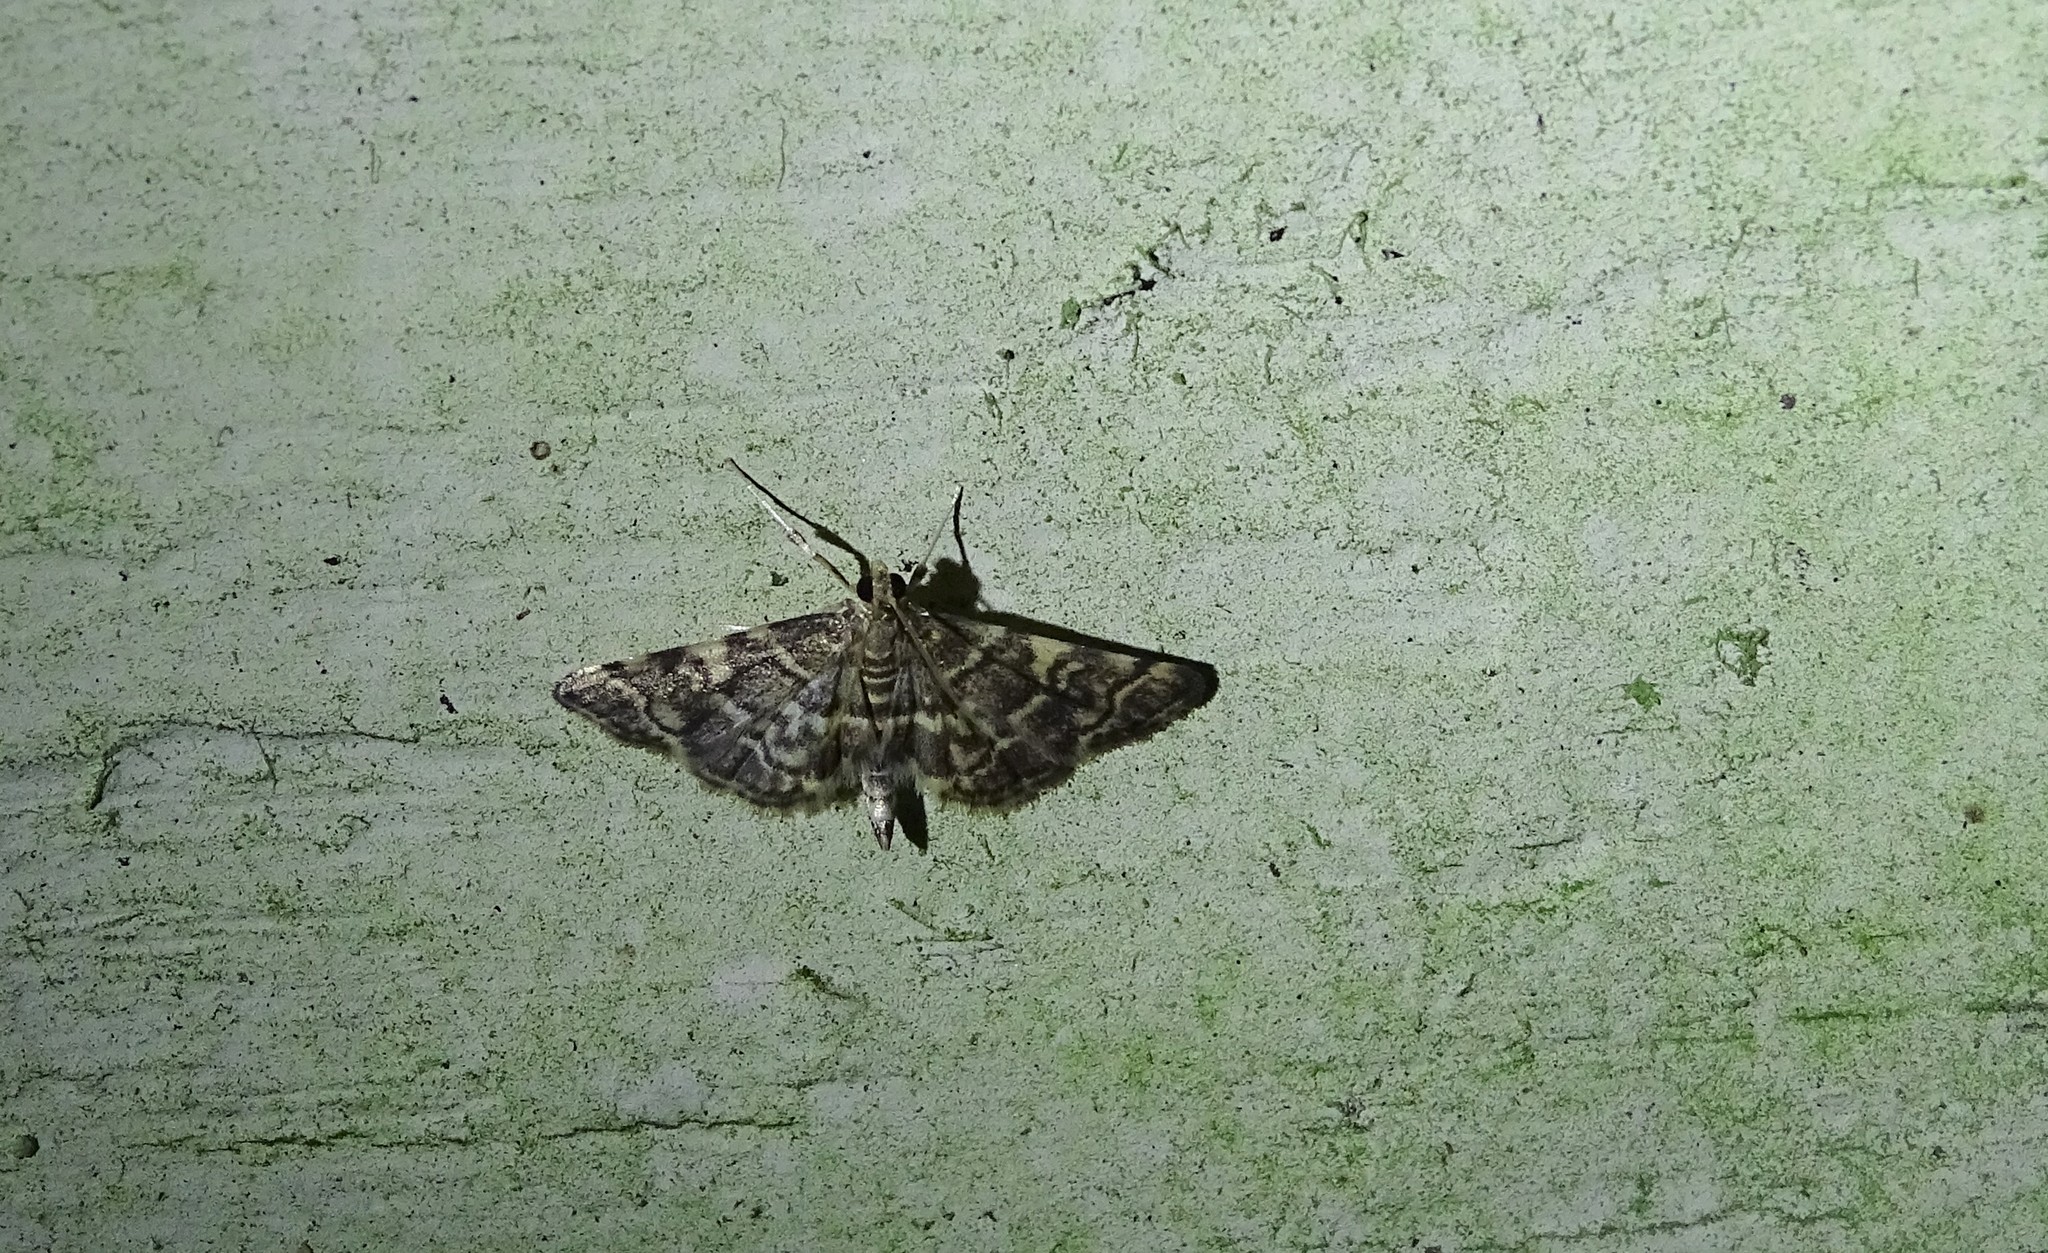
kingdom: Animalia
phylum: Arthropoda
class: Insecta
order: Lepidoptera
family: Crambidae
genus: Anageshna
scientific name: Anageshna primordialis
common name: Yellow-spotted webworm moth
